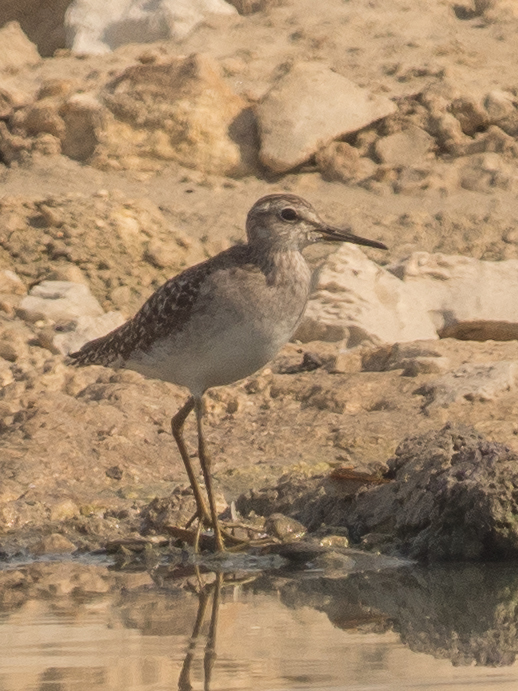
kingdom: Animalia
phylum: Chordata
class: Aves
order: Charadriiformes
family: Scolopacidae
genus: Tringa
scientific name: Tringa glareola
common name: Wood sandpiper
